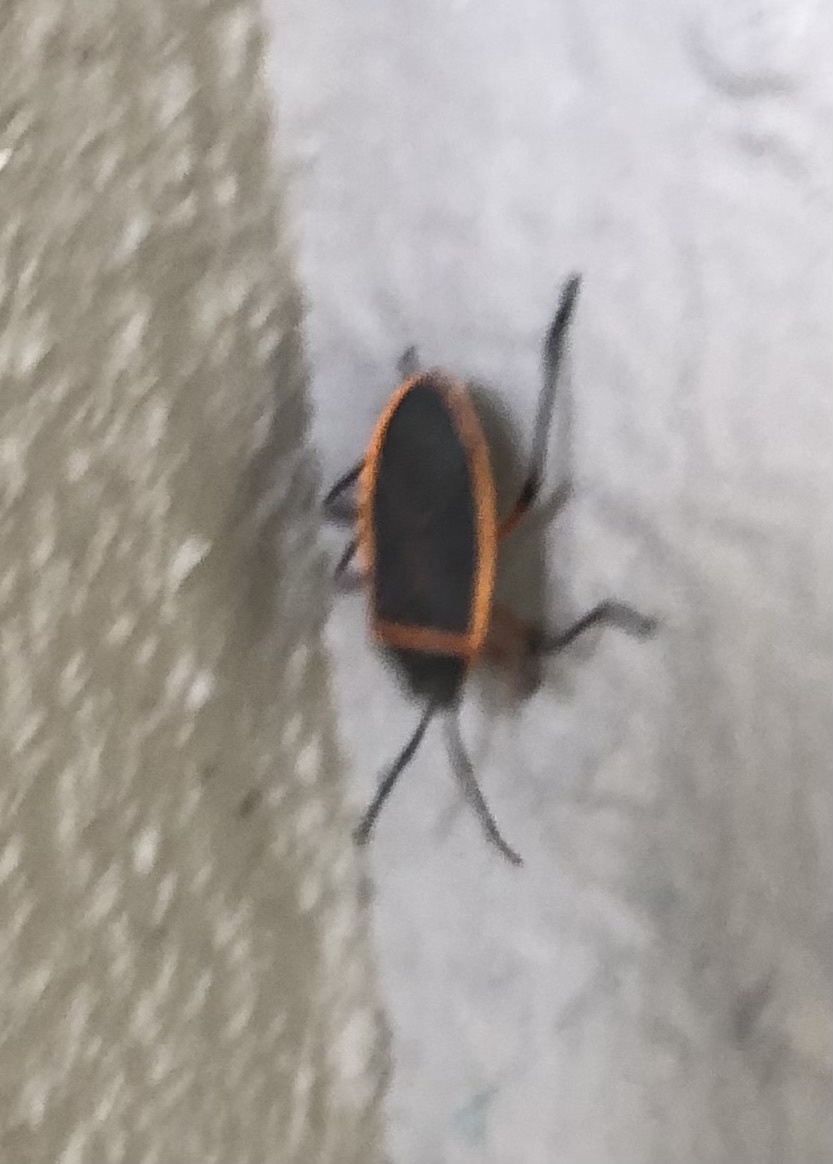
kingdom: Animalia
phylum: Arthropoda
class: Insecta
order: Hemiptera
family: Largidae
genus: Largus
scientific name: Largus succinctus
